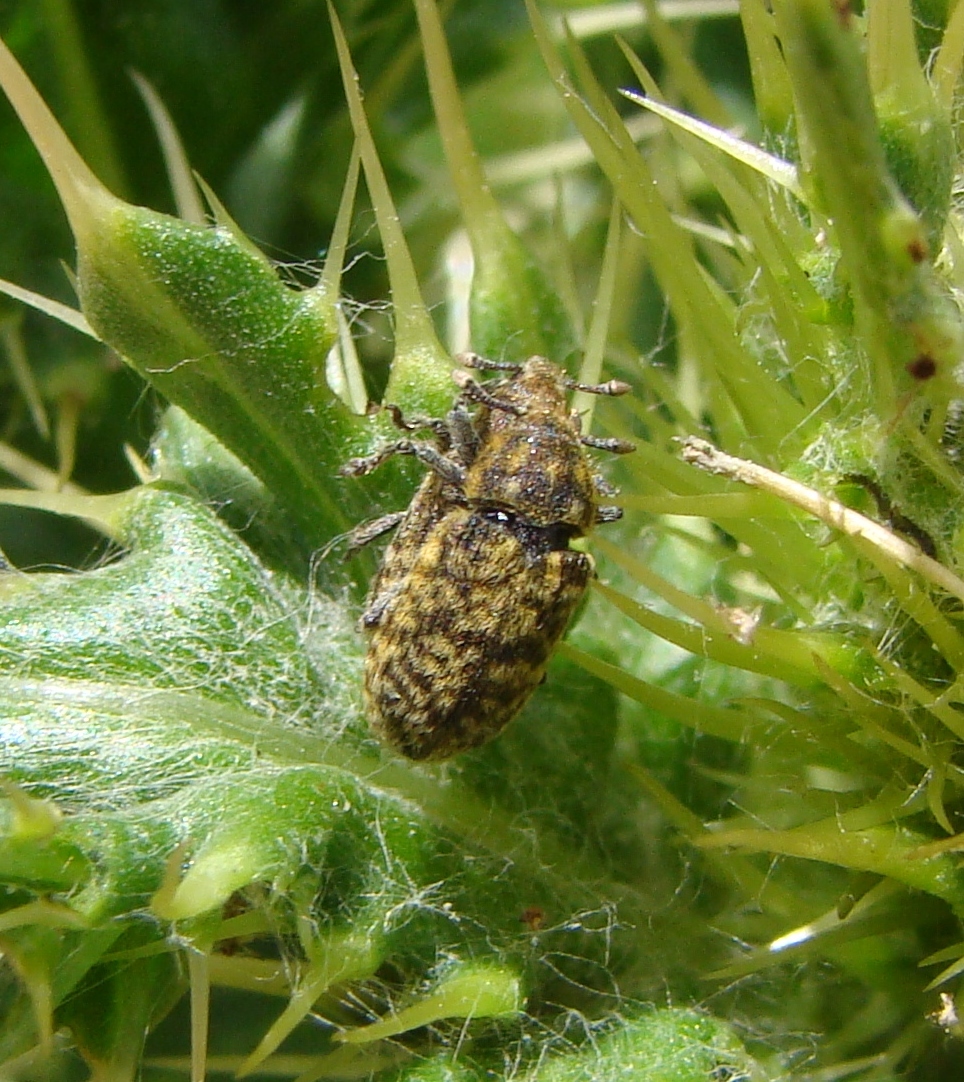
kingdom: Animalia
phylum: Arthropoda
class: Insecta
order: Coleoptera
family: Curculionidae
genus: Rhinocyllus
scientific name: Rhinocyllus conicus
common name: Weevil
